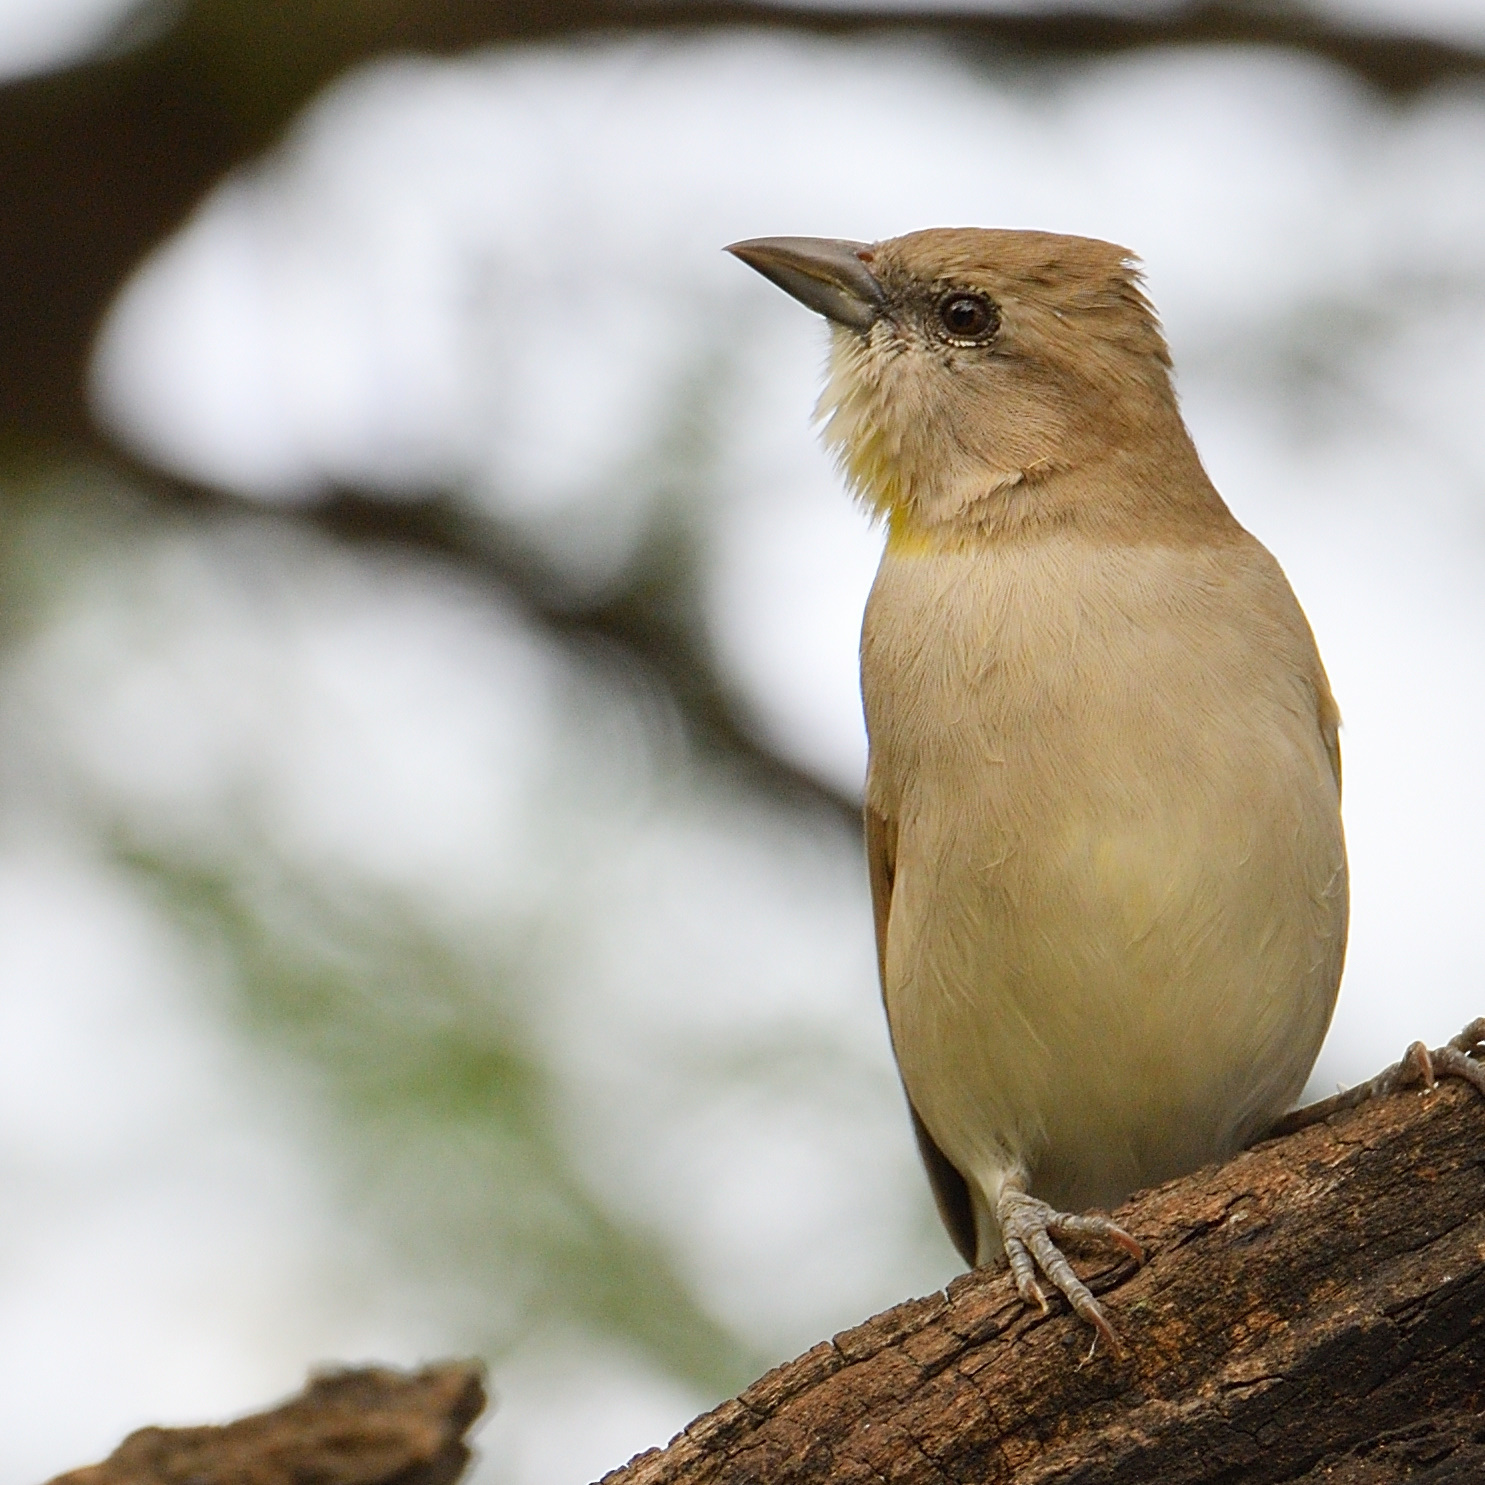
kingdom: Animalia
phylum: Chordata
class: Aves
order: Passeriformes
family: Passeridae
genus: Gymnoris
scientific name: Gymnoris xanthocollis
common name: Yellow-throated sparrow
